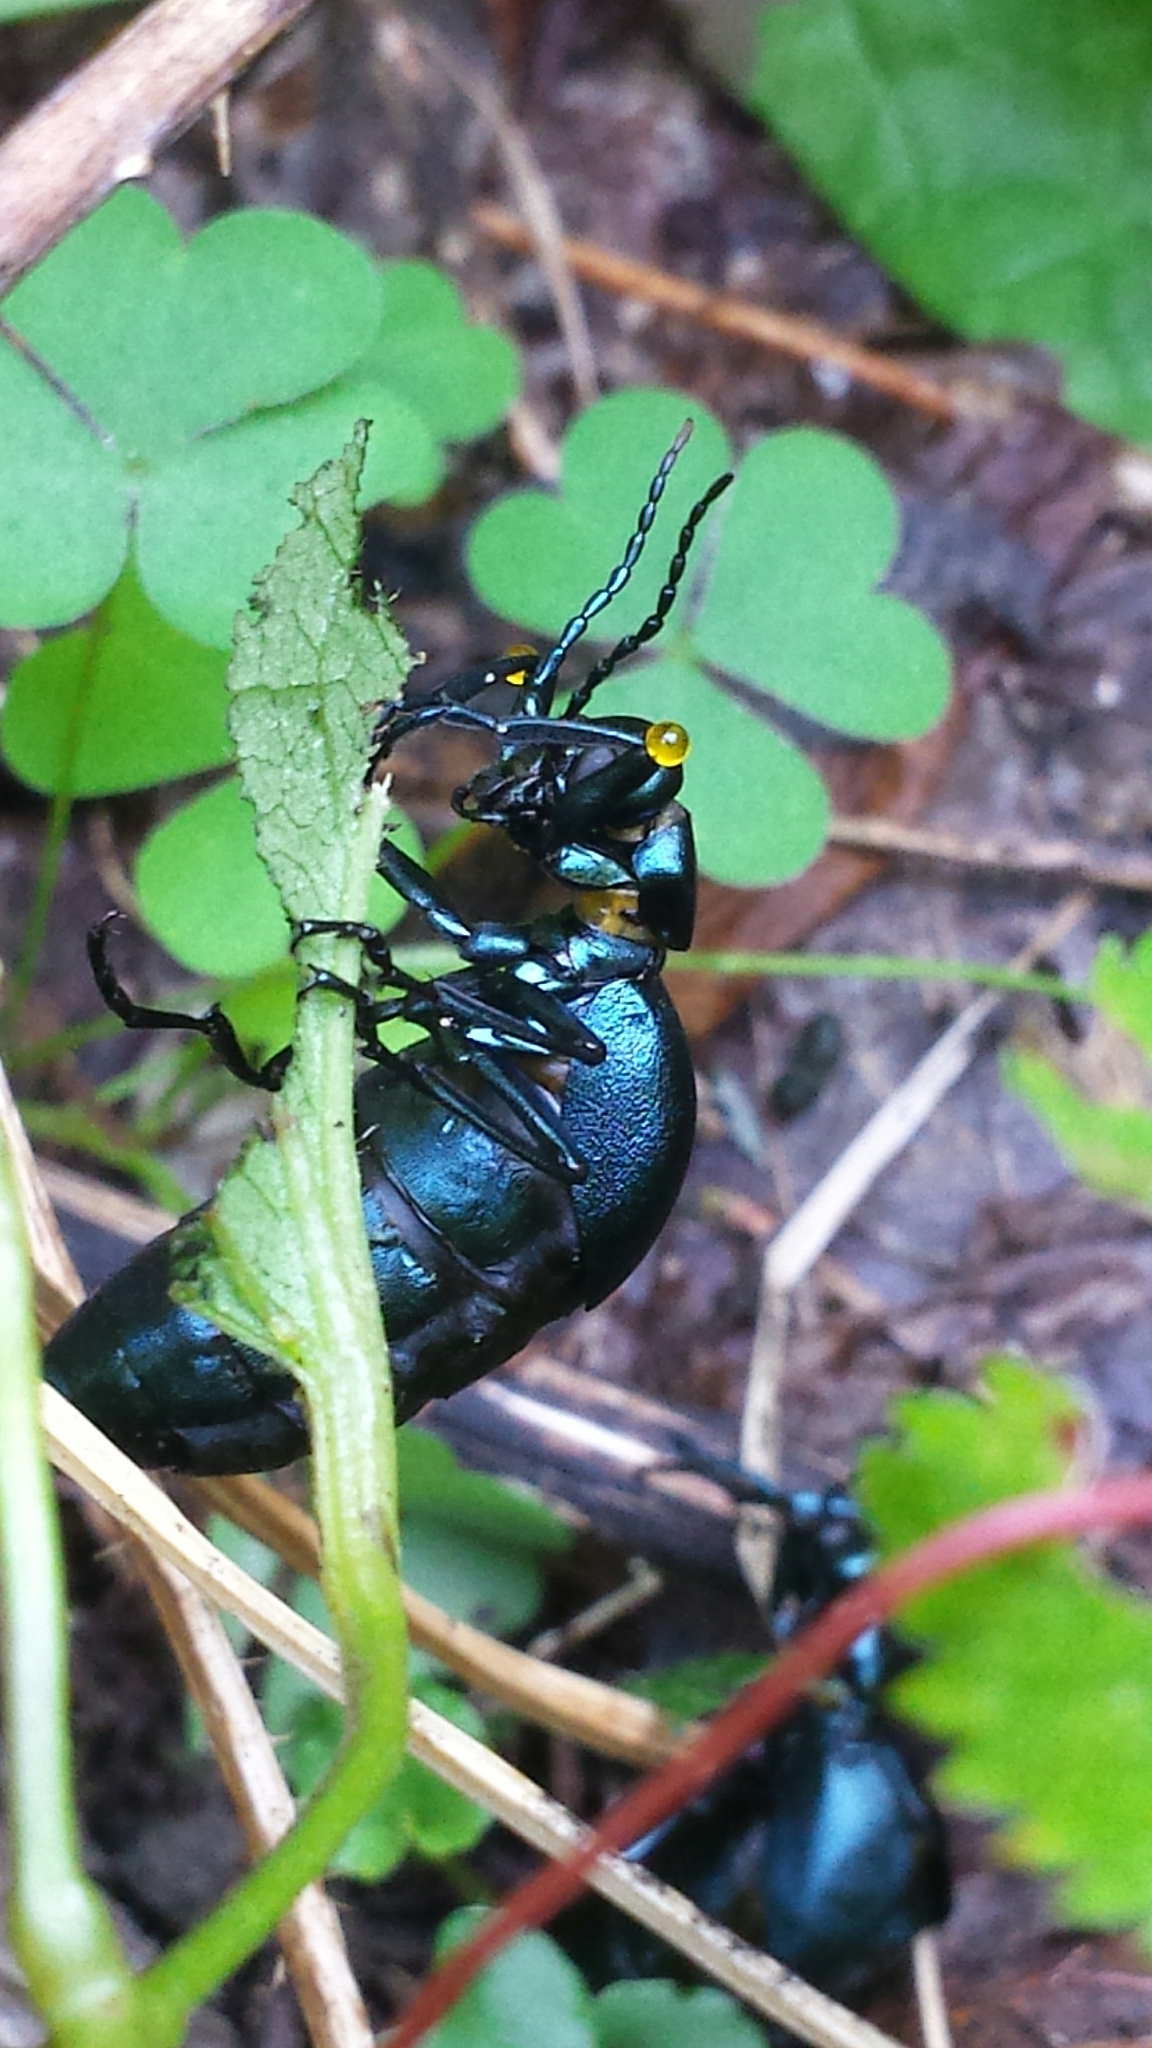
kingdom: Animalia
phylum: Arthropoda
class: Insecta
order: Coleoptera
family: Meloidae
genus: Meloe
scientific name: Meloe impressus
